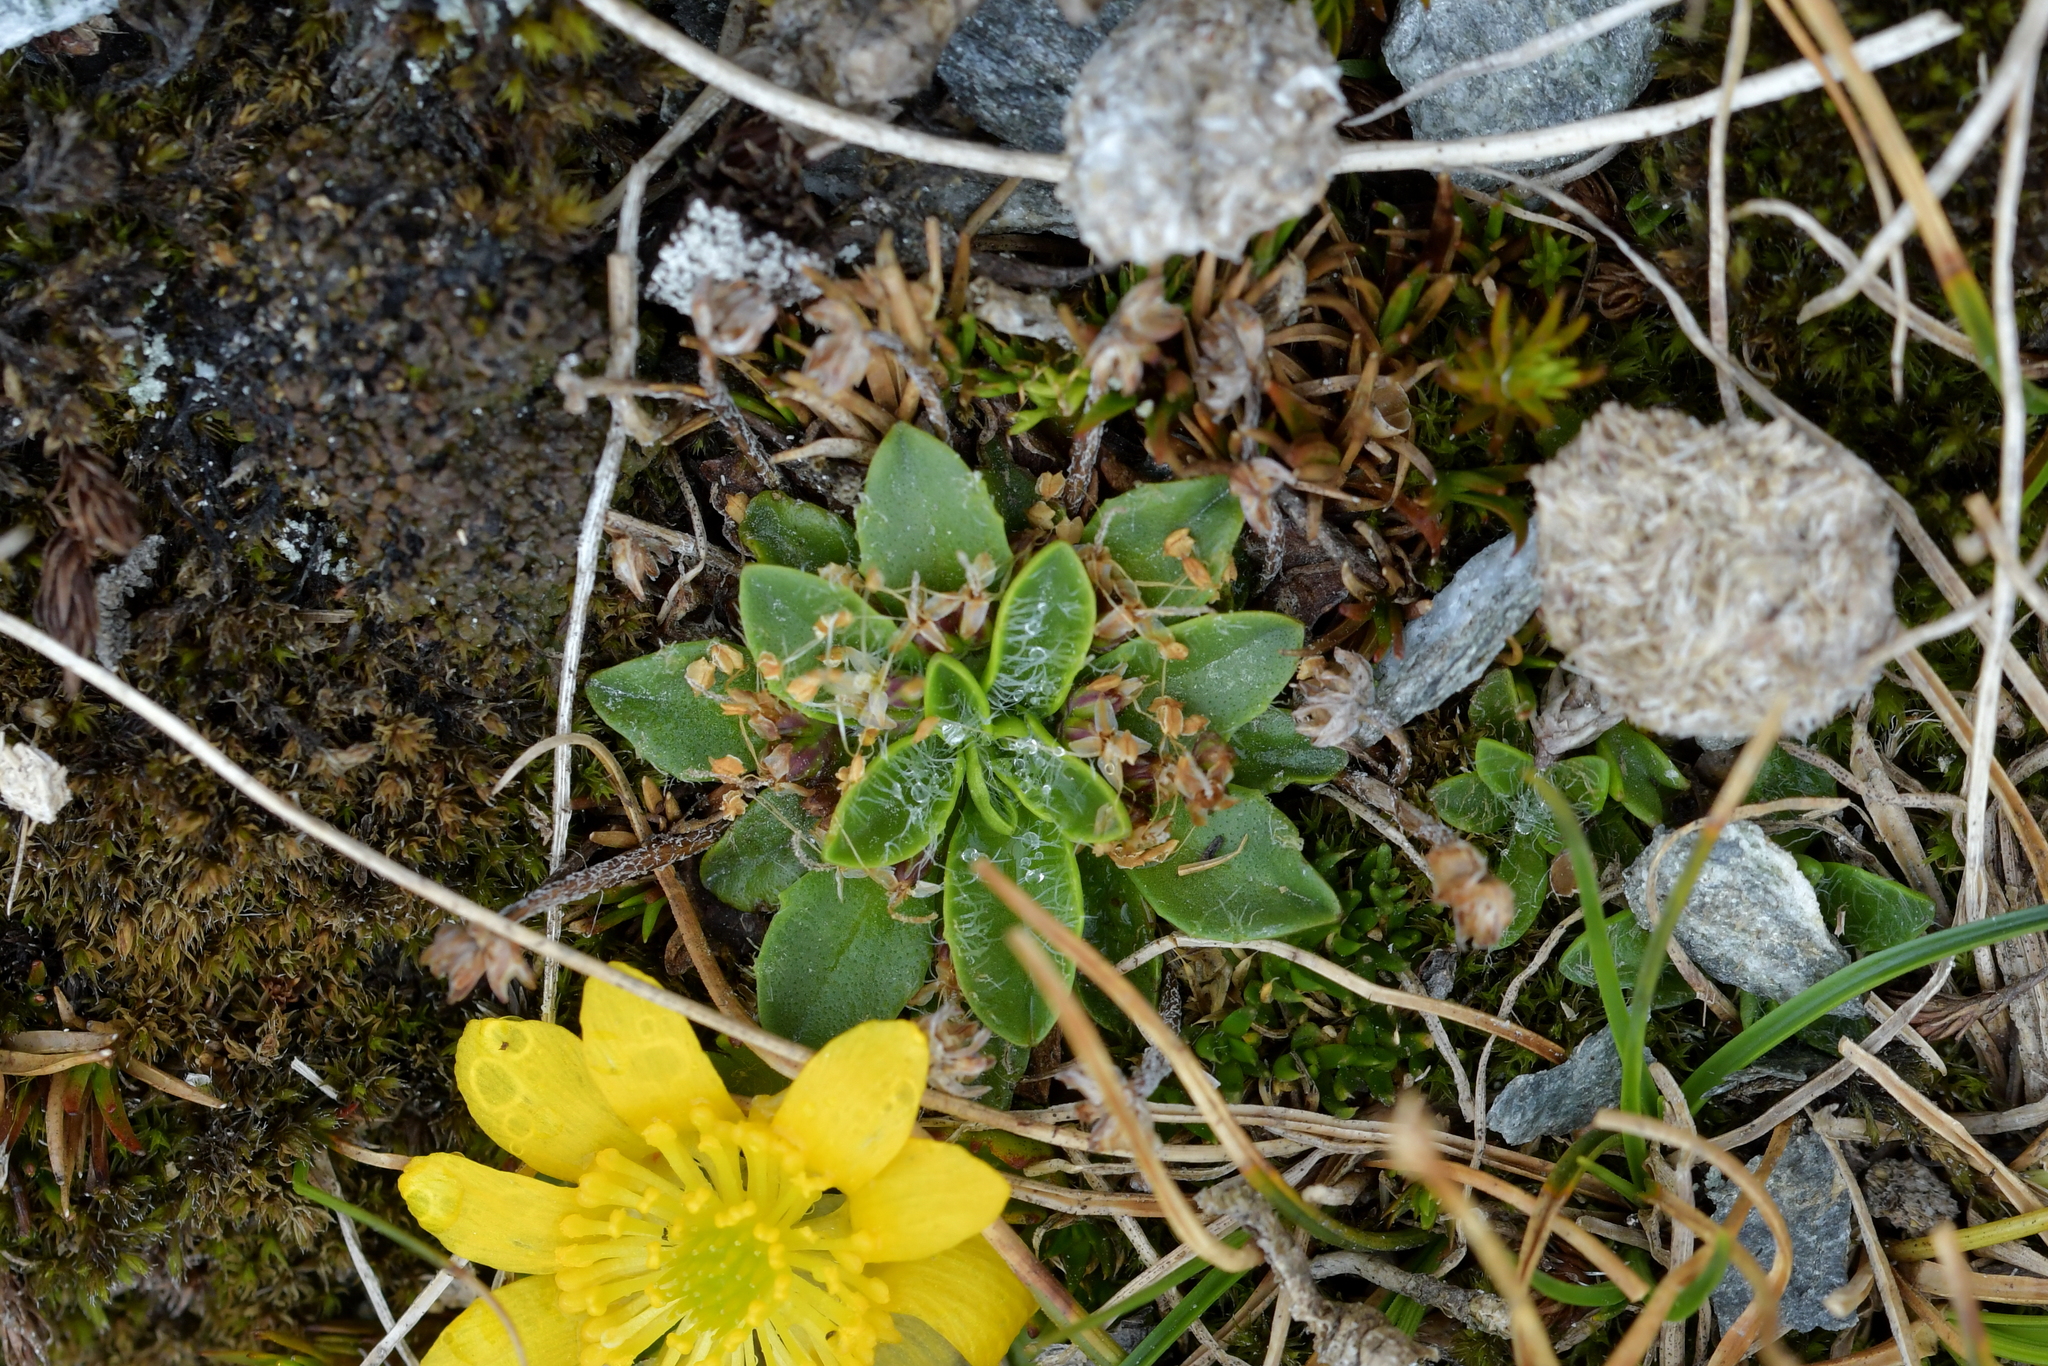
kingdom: Plantae
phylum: Tracheophyta
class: Magnoliopsida
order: Lamiales
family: Plantaginaceae
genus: Plantago
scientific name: Plantago lanigera
